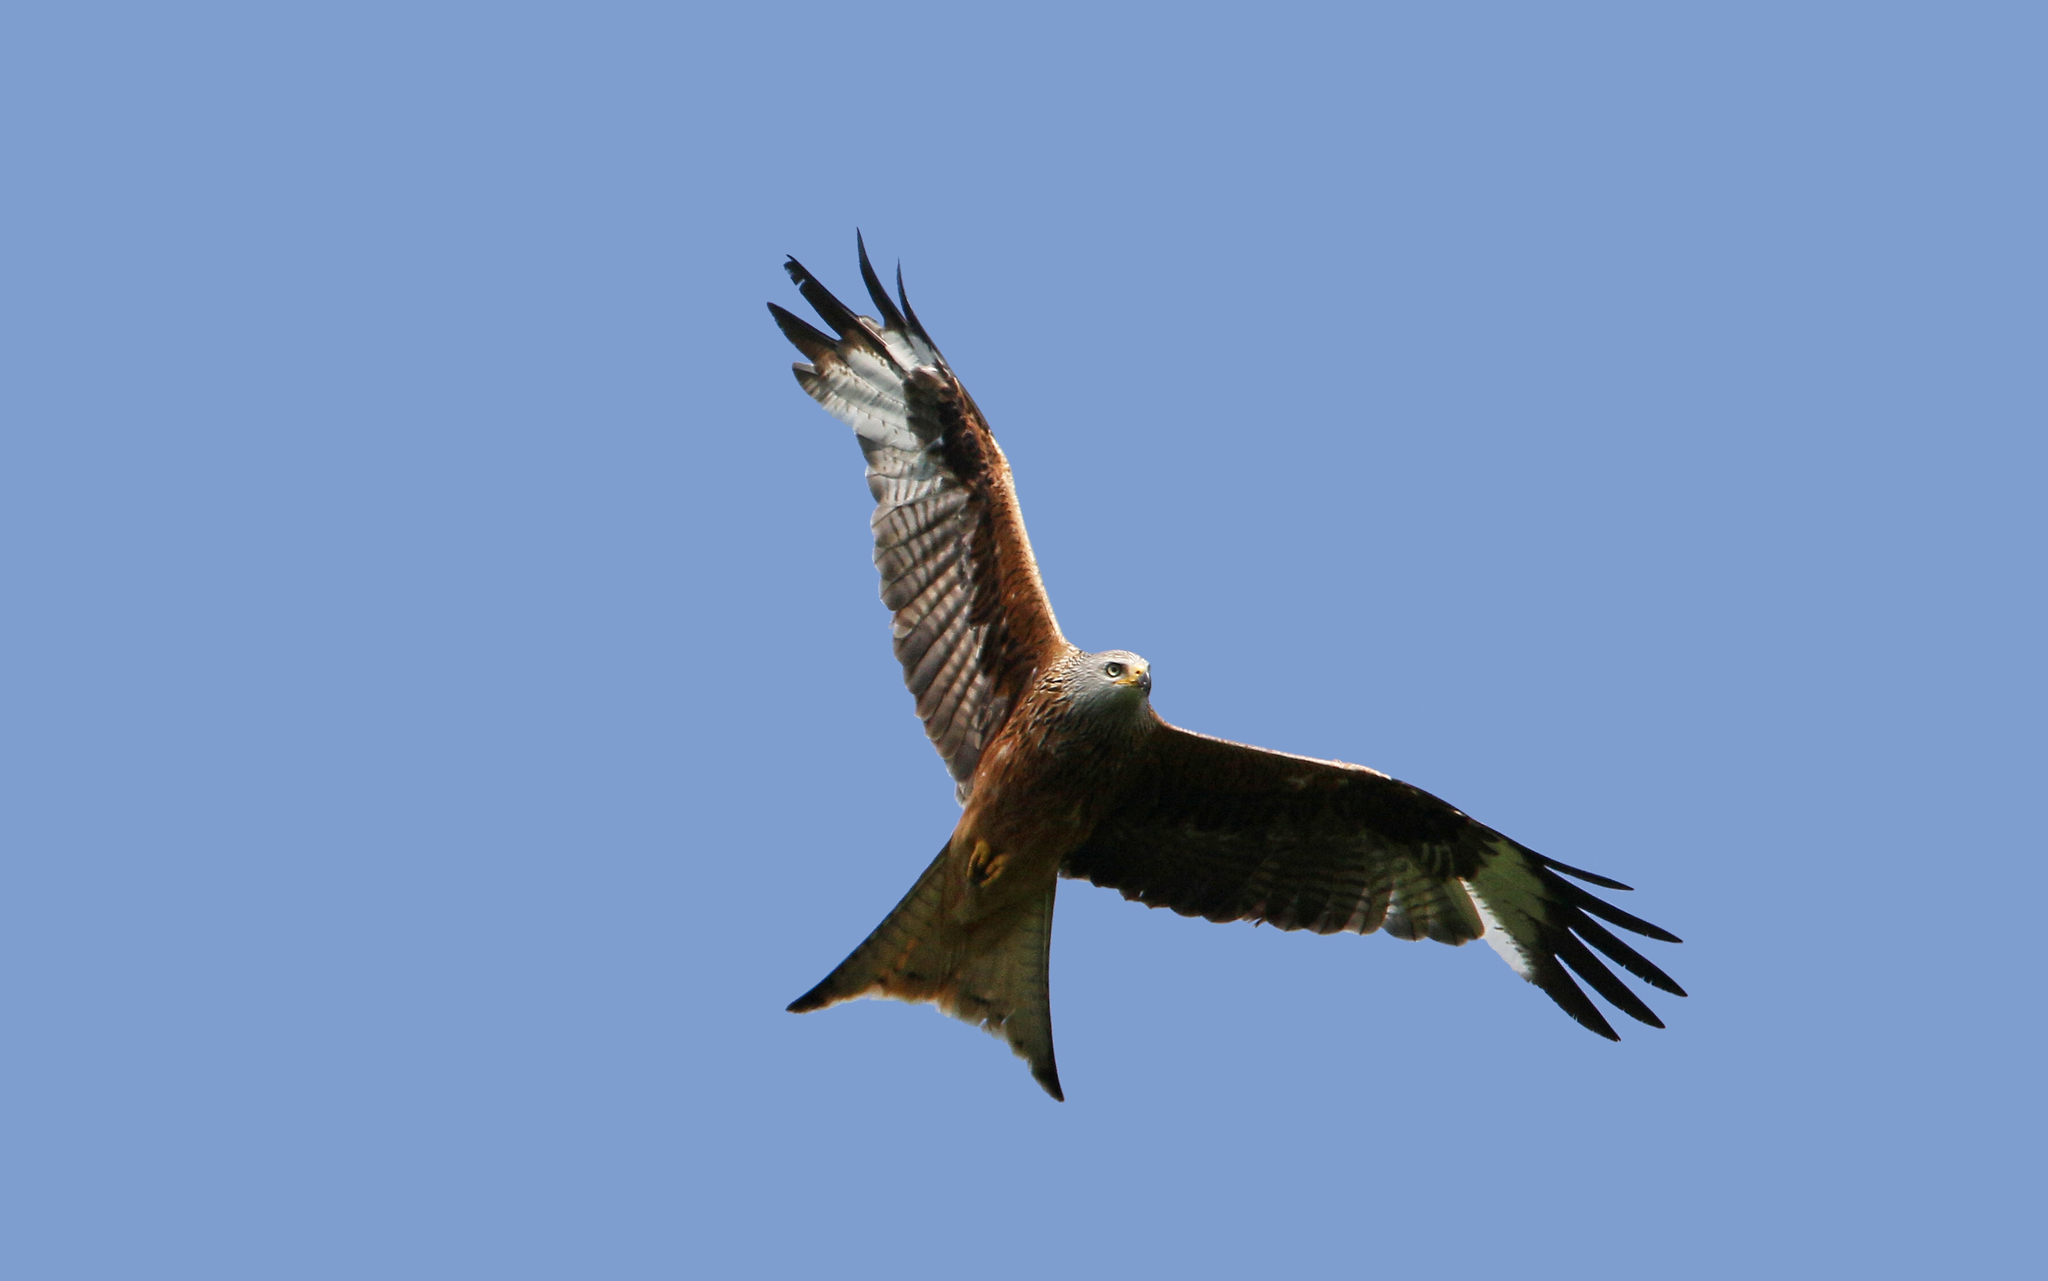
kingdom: Animalia
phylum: Chordata
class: Aves
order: Accipitriformes
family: Accipitridae
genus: Milvus
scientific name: Milvus milvus
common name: Red kite
